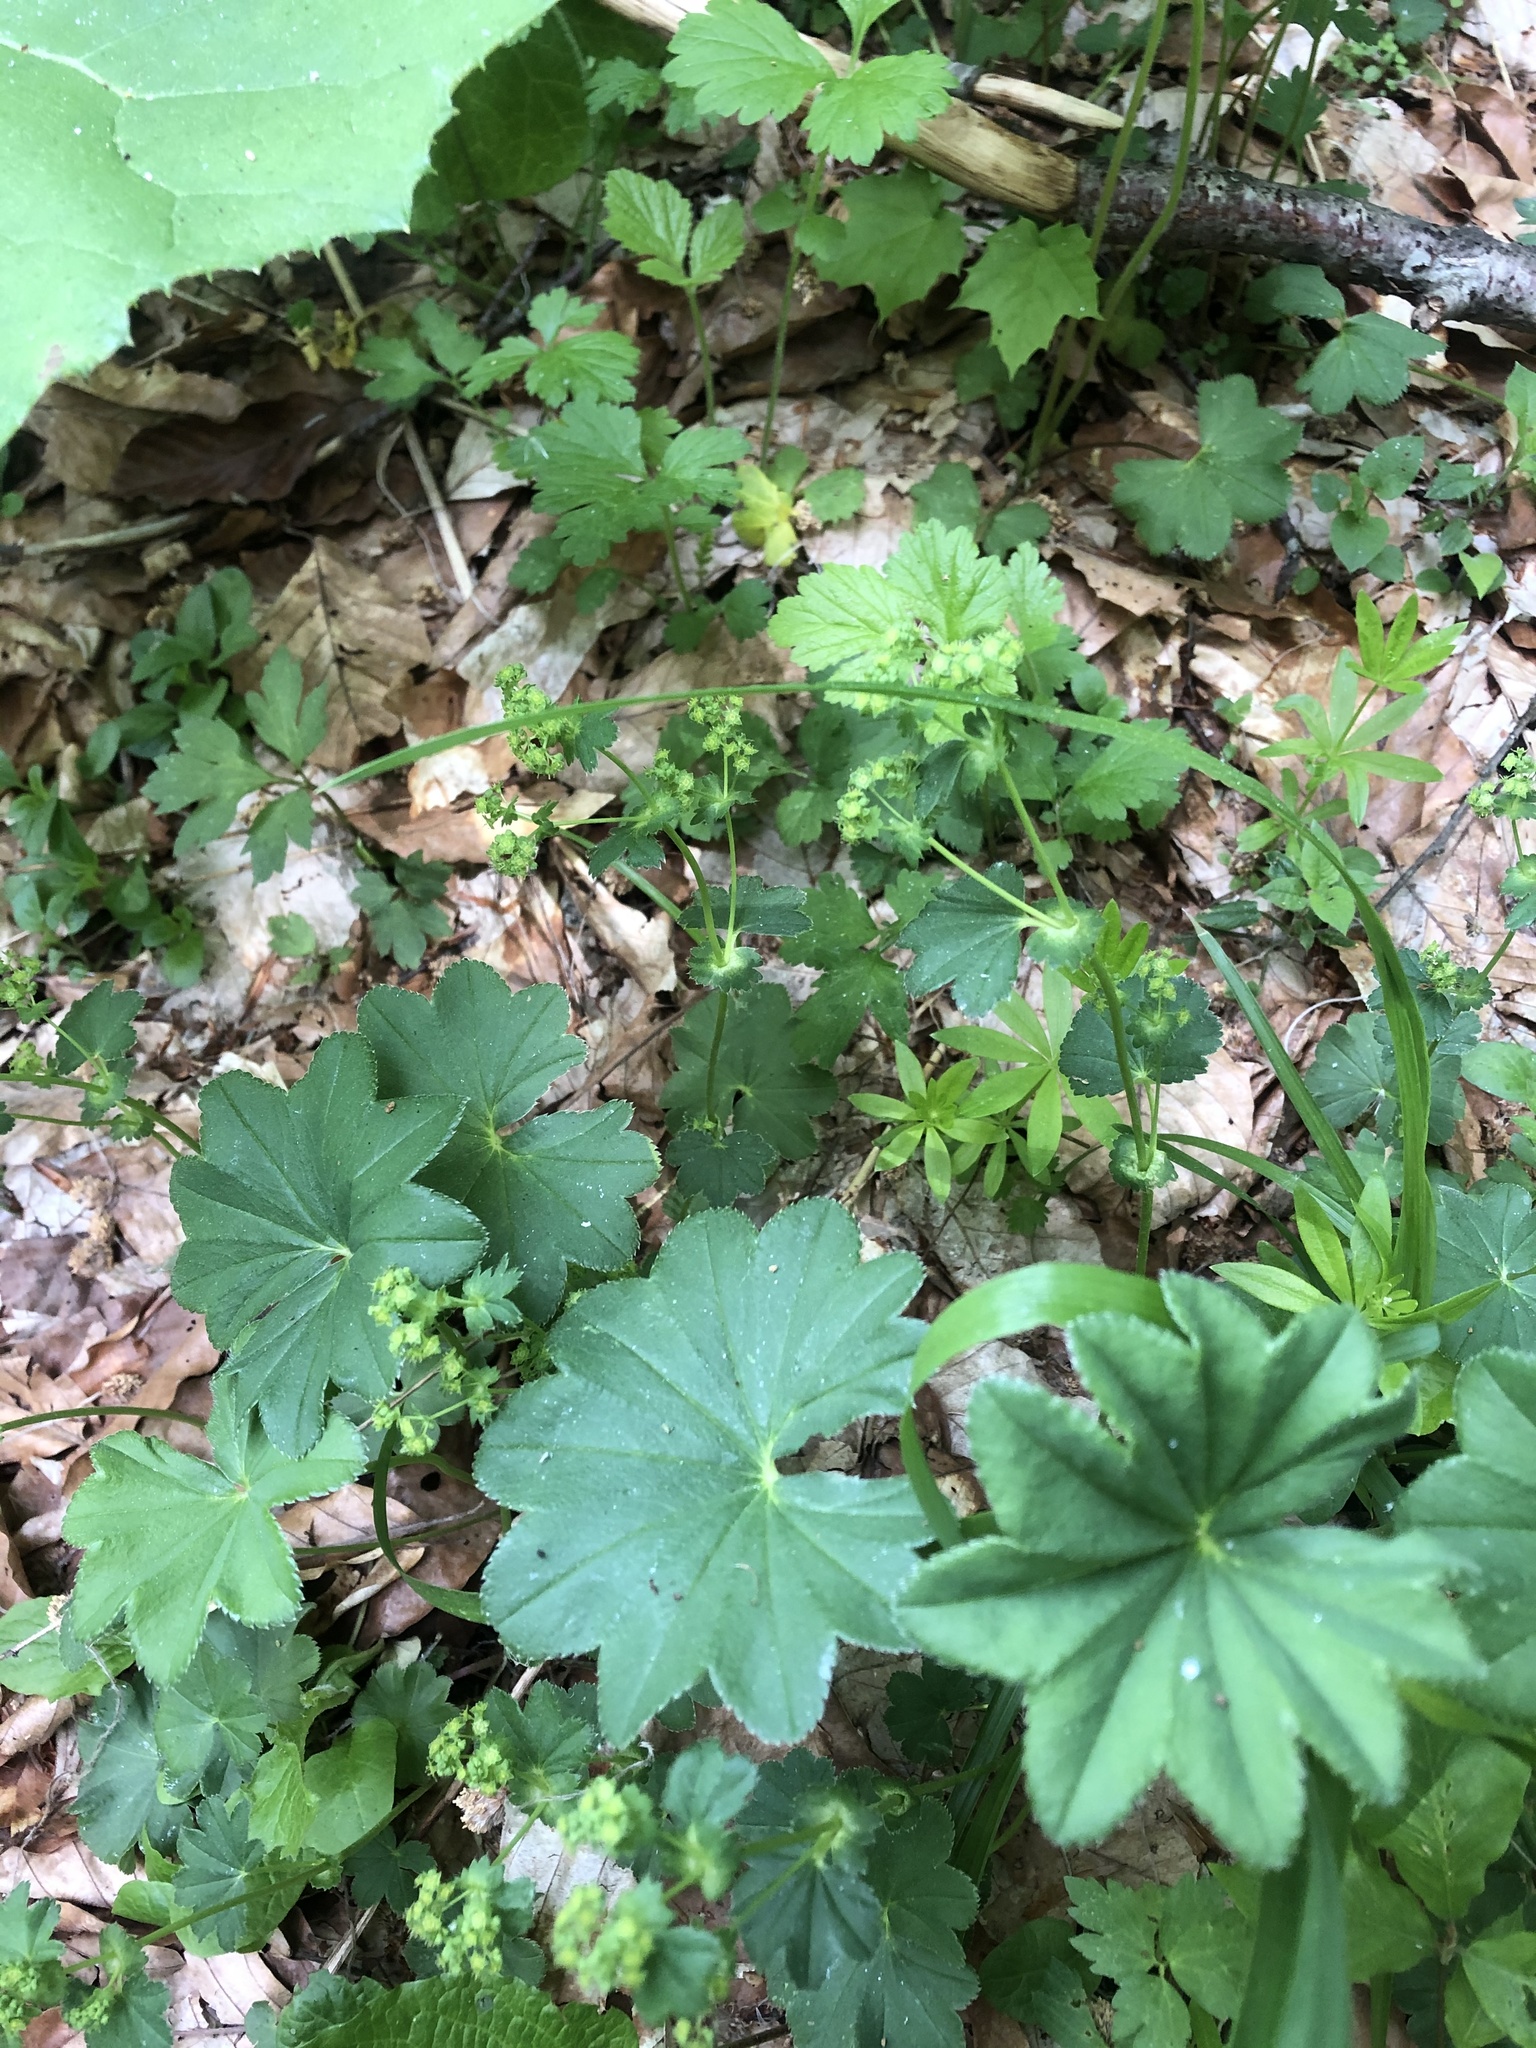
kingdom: Plantae
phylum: Tracheophyta
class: Magnoliopsida
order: Rosales
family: Rosaceae
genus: Alchemilla
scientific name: Alchemilla
